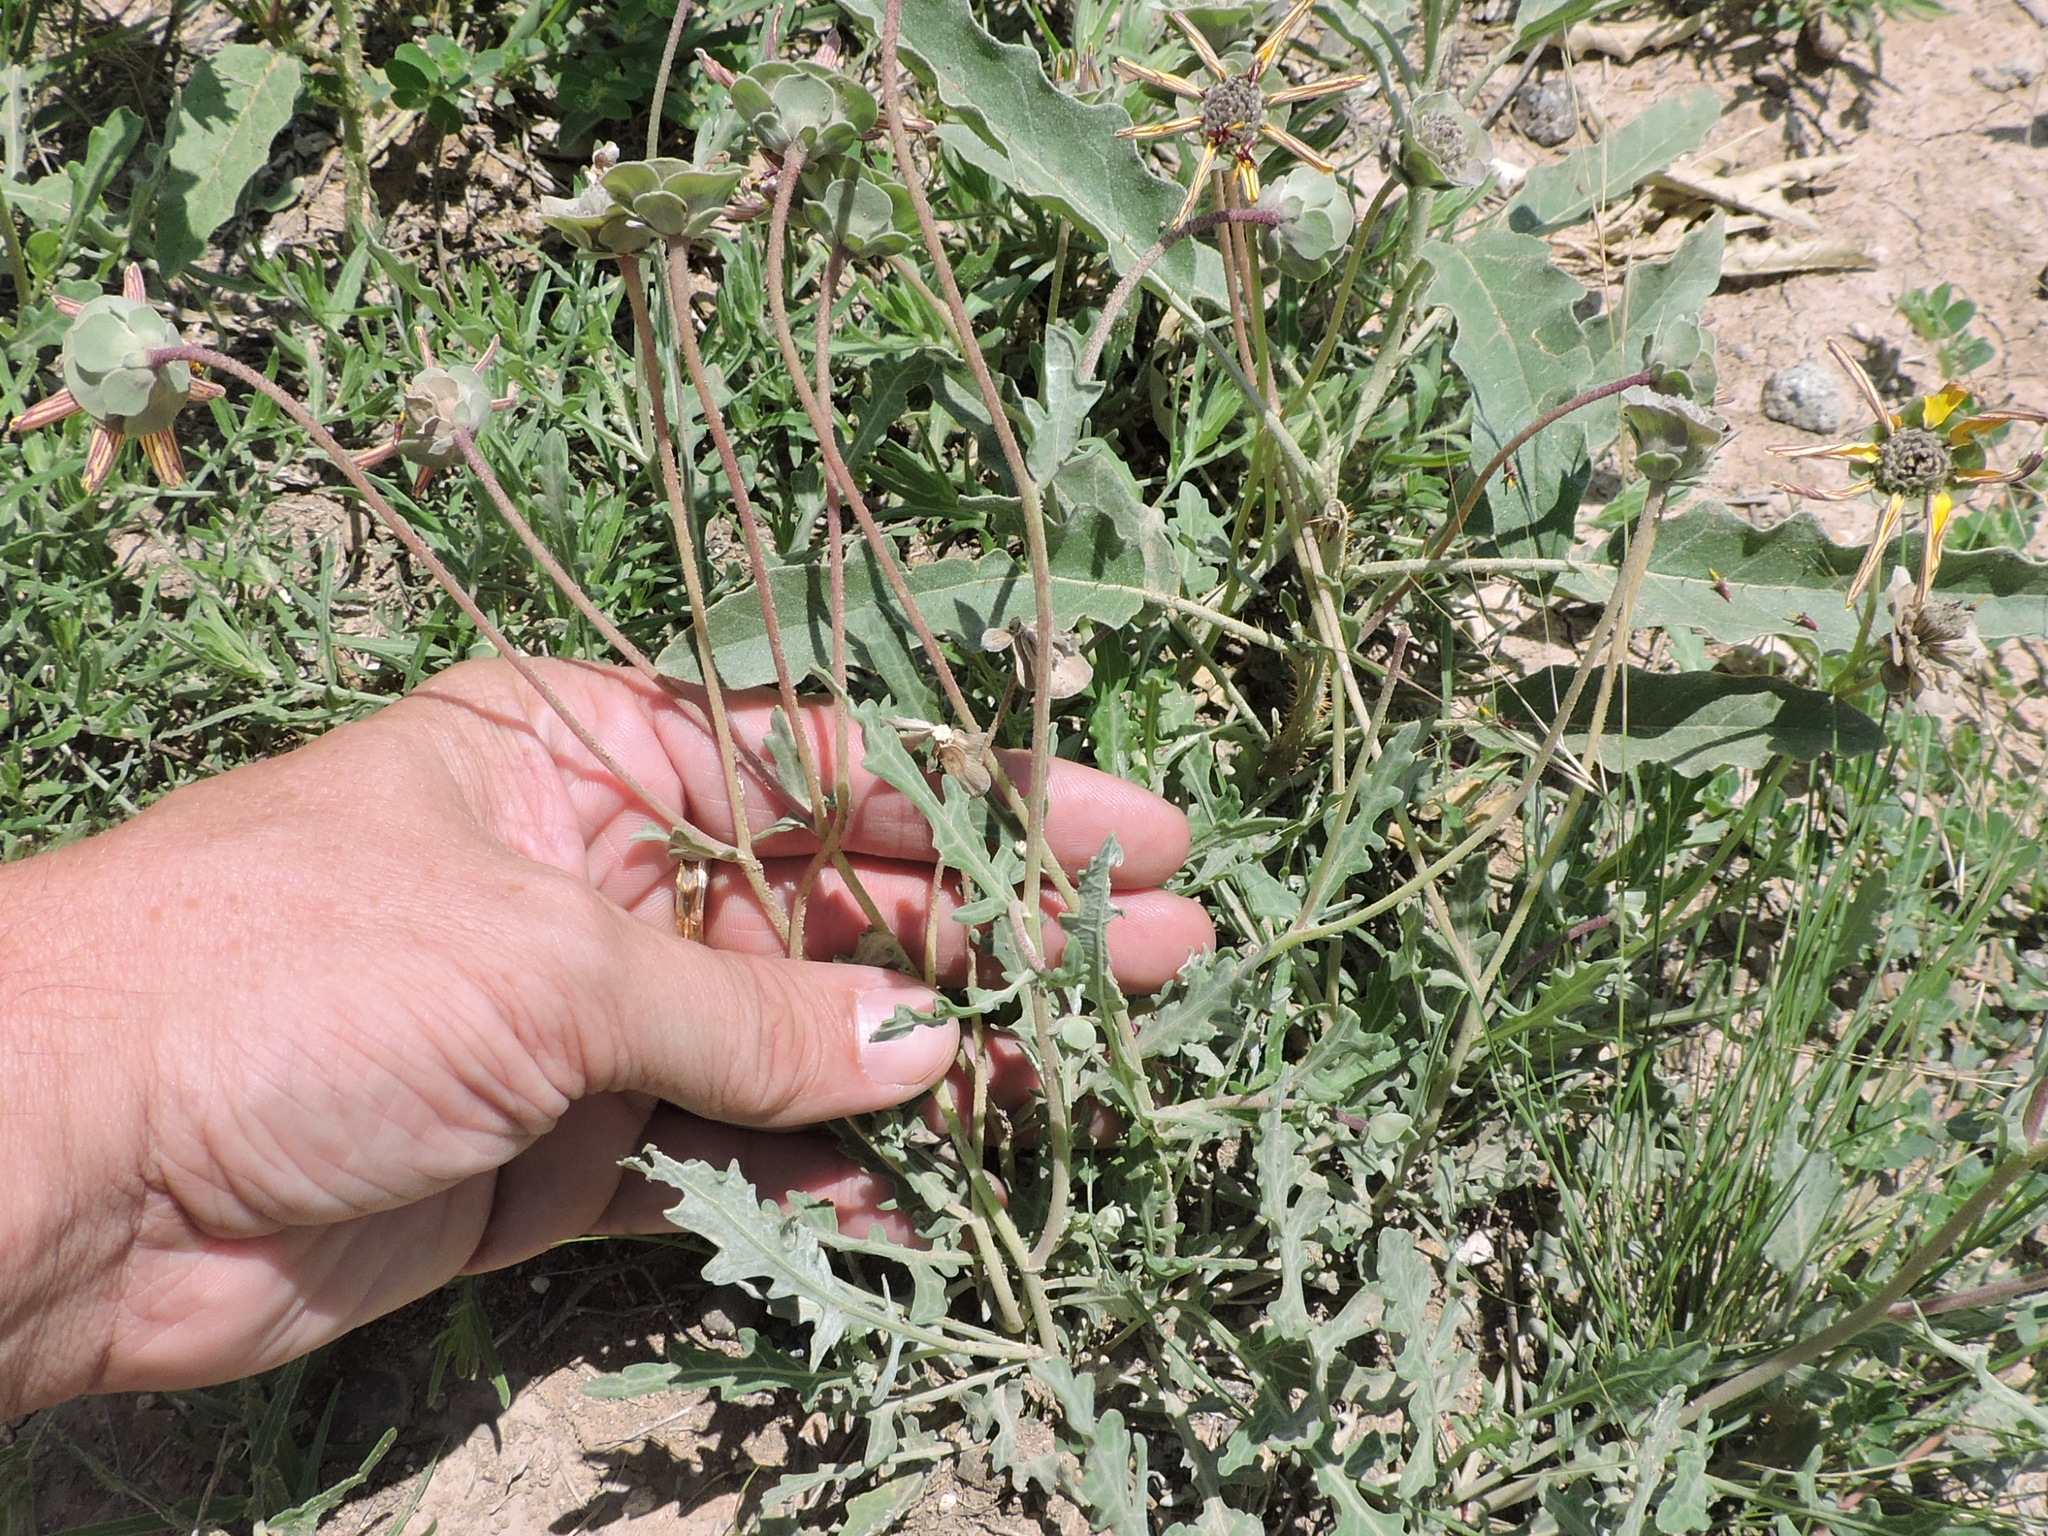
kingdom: Plantae
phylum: Tracheophyta
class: Magnoliopsida
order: Asterales
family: Asteraceae
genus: Berlandiera
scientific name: Berlandiera lyrata
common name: Chocolate-flower
